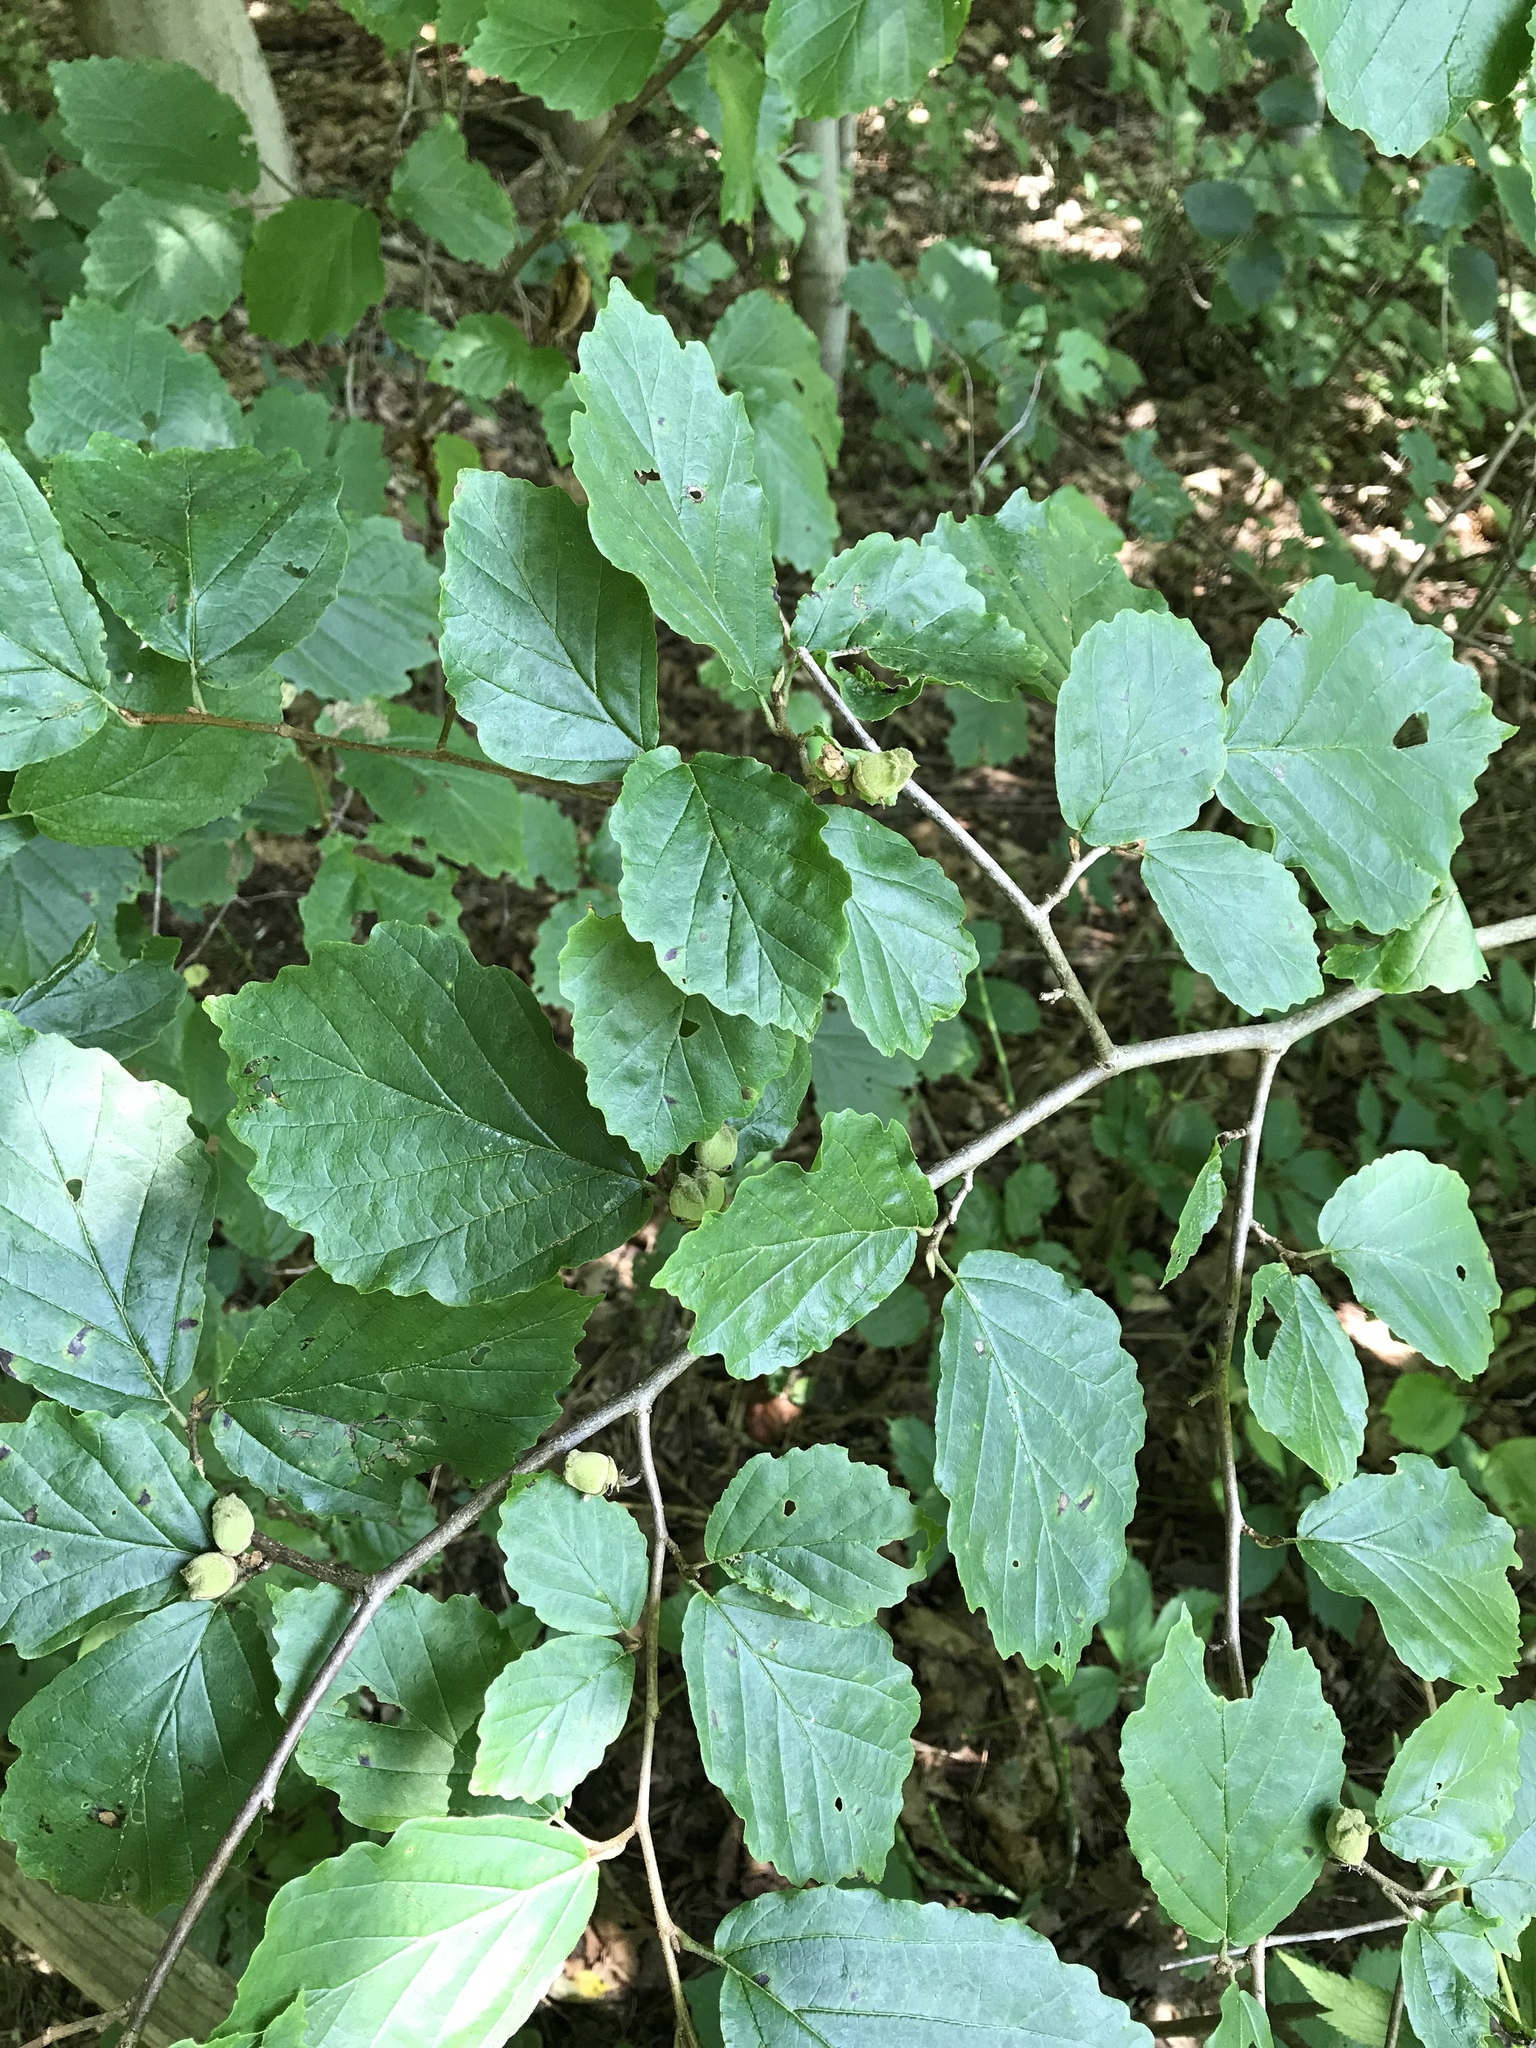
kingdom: Plantae
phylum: Tracheophyta
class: Magnoliopsida
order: Saxifragales
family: Hamamelidaceae
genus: Hamamelis
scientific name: Hamamelis virginiana
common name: Witch-hazel
